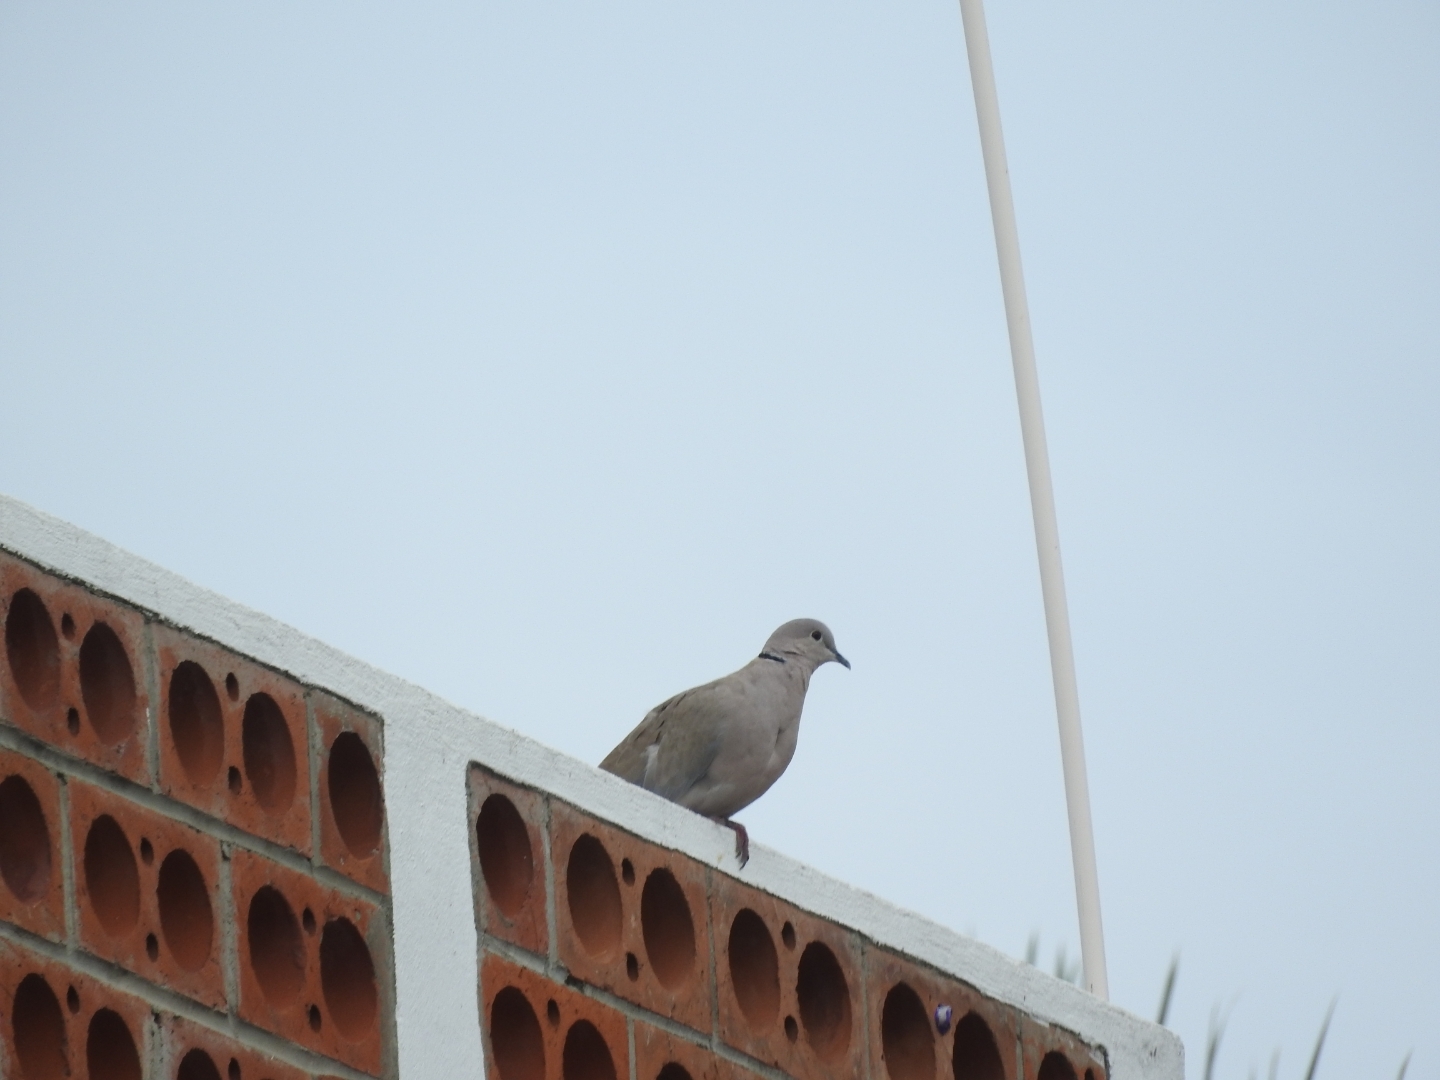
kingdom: Animalia
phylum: Chordata
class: Aves
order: Columbiformes
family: Columbidae
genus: Streptopelia
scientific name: Streptopelia decaocto
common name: Eurasian collared dove
